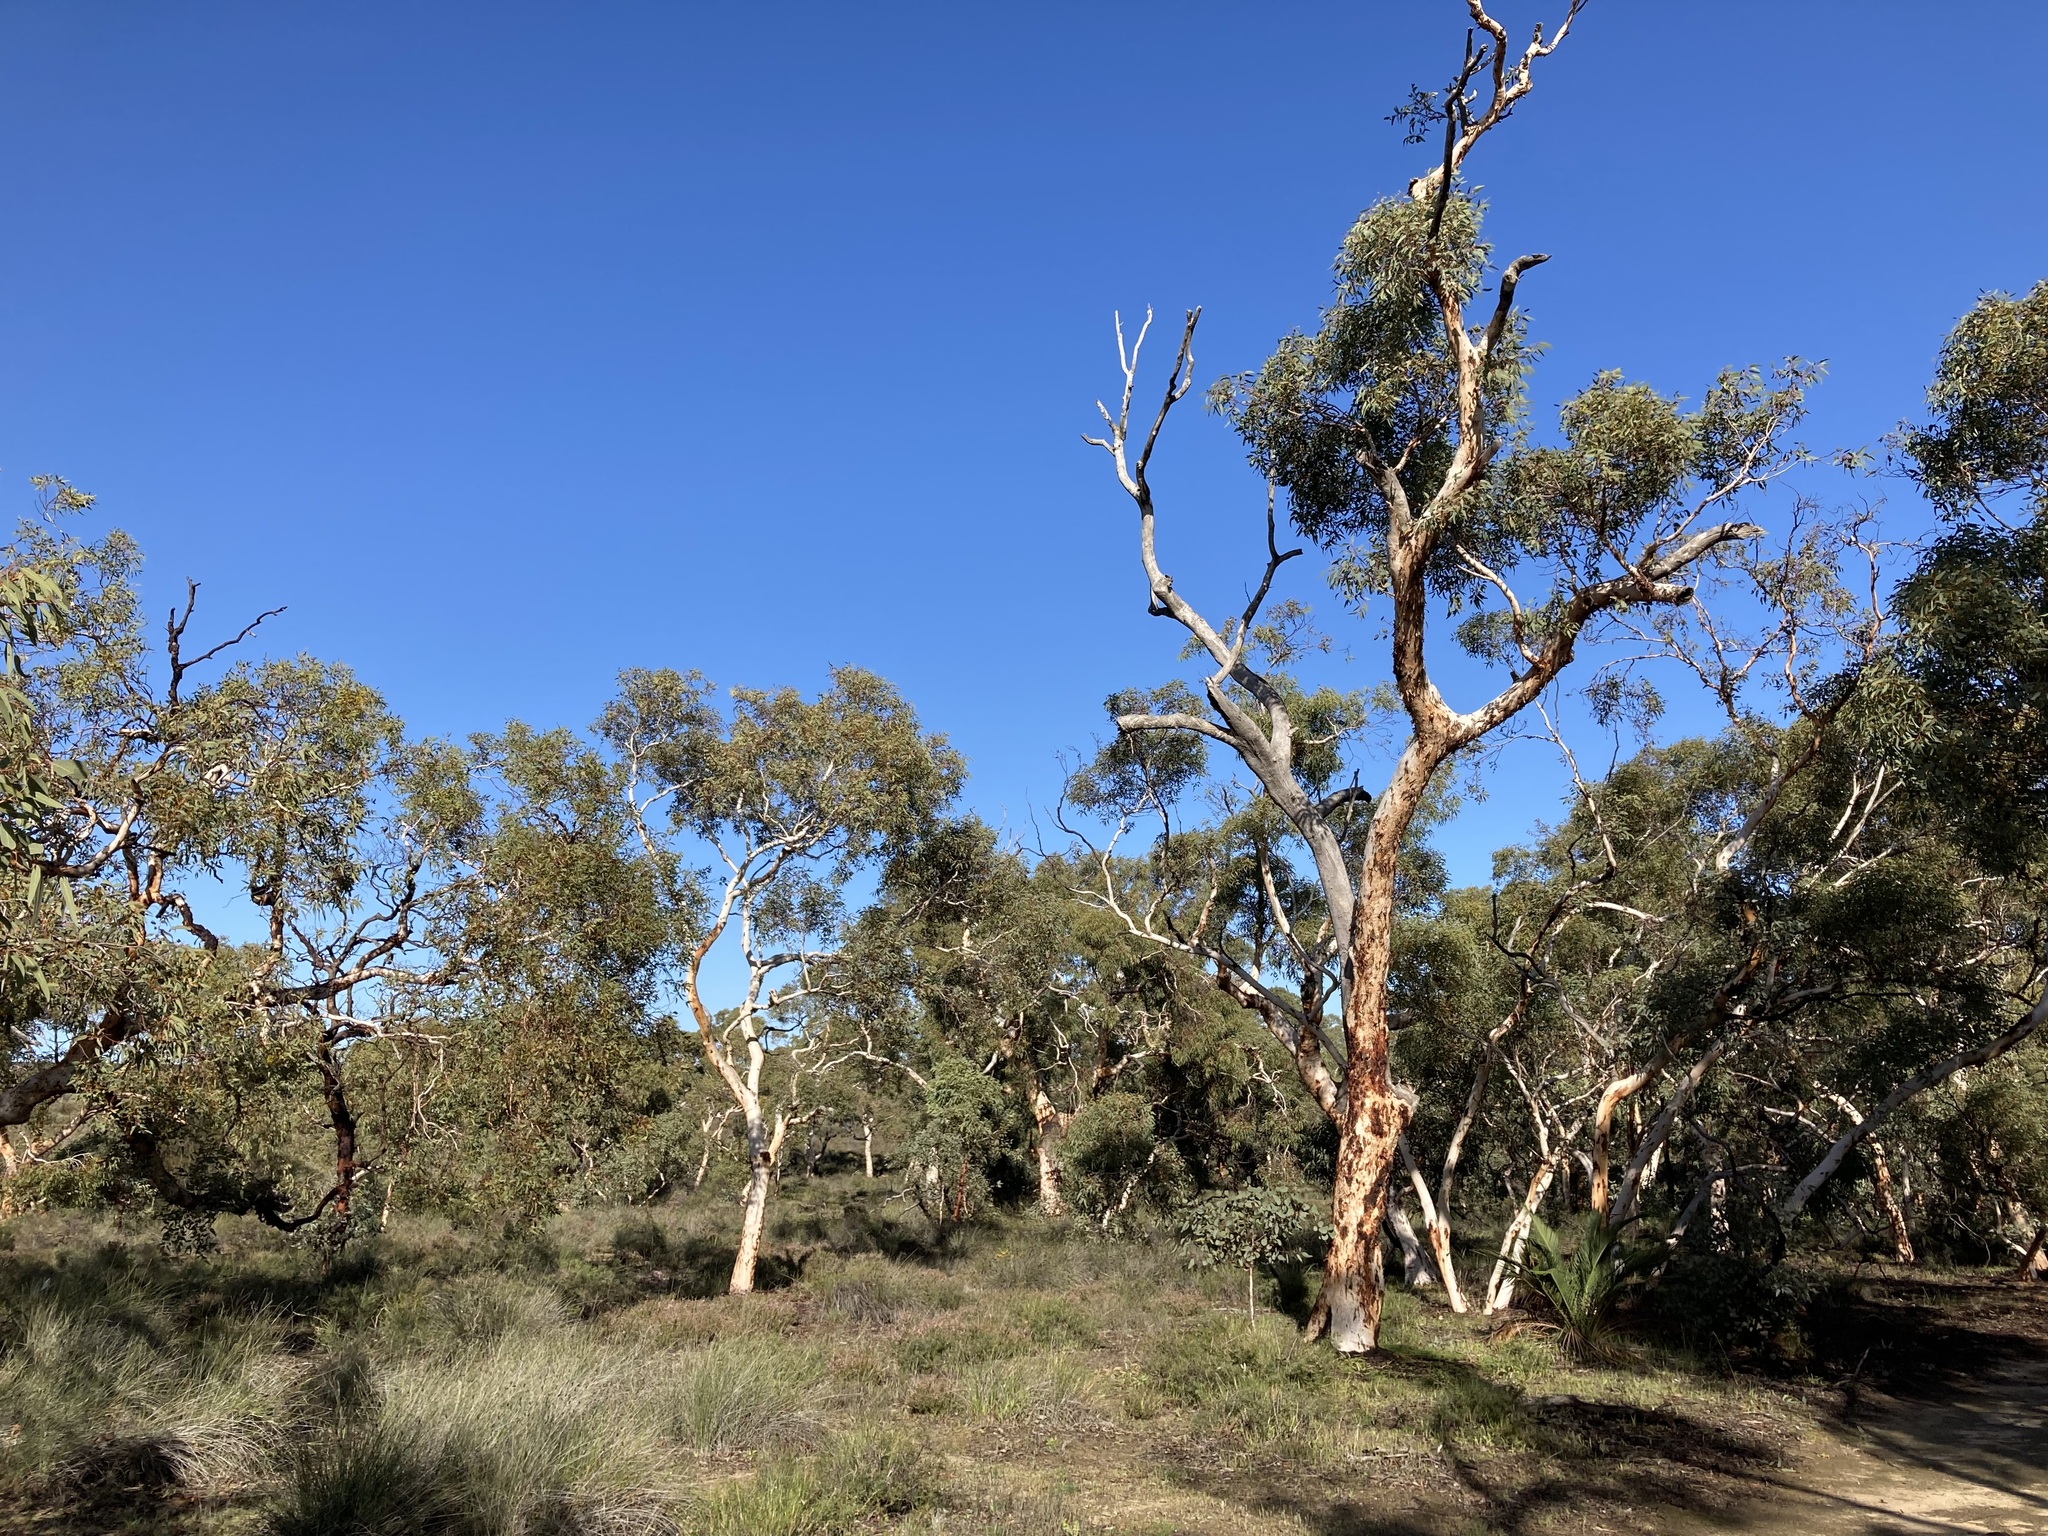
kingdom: Plantae
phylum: Tracheophyta
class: Magnoliopsida
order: Myrtales
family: Myrtaceae
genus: Eucalyptus
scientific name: Eucalyptus wandoo
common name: White gum
